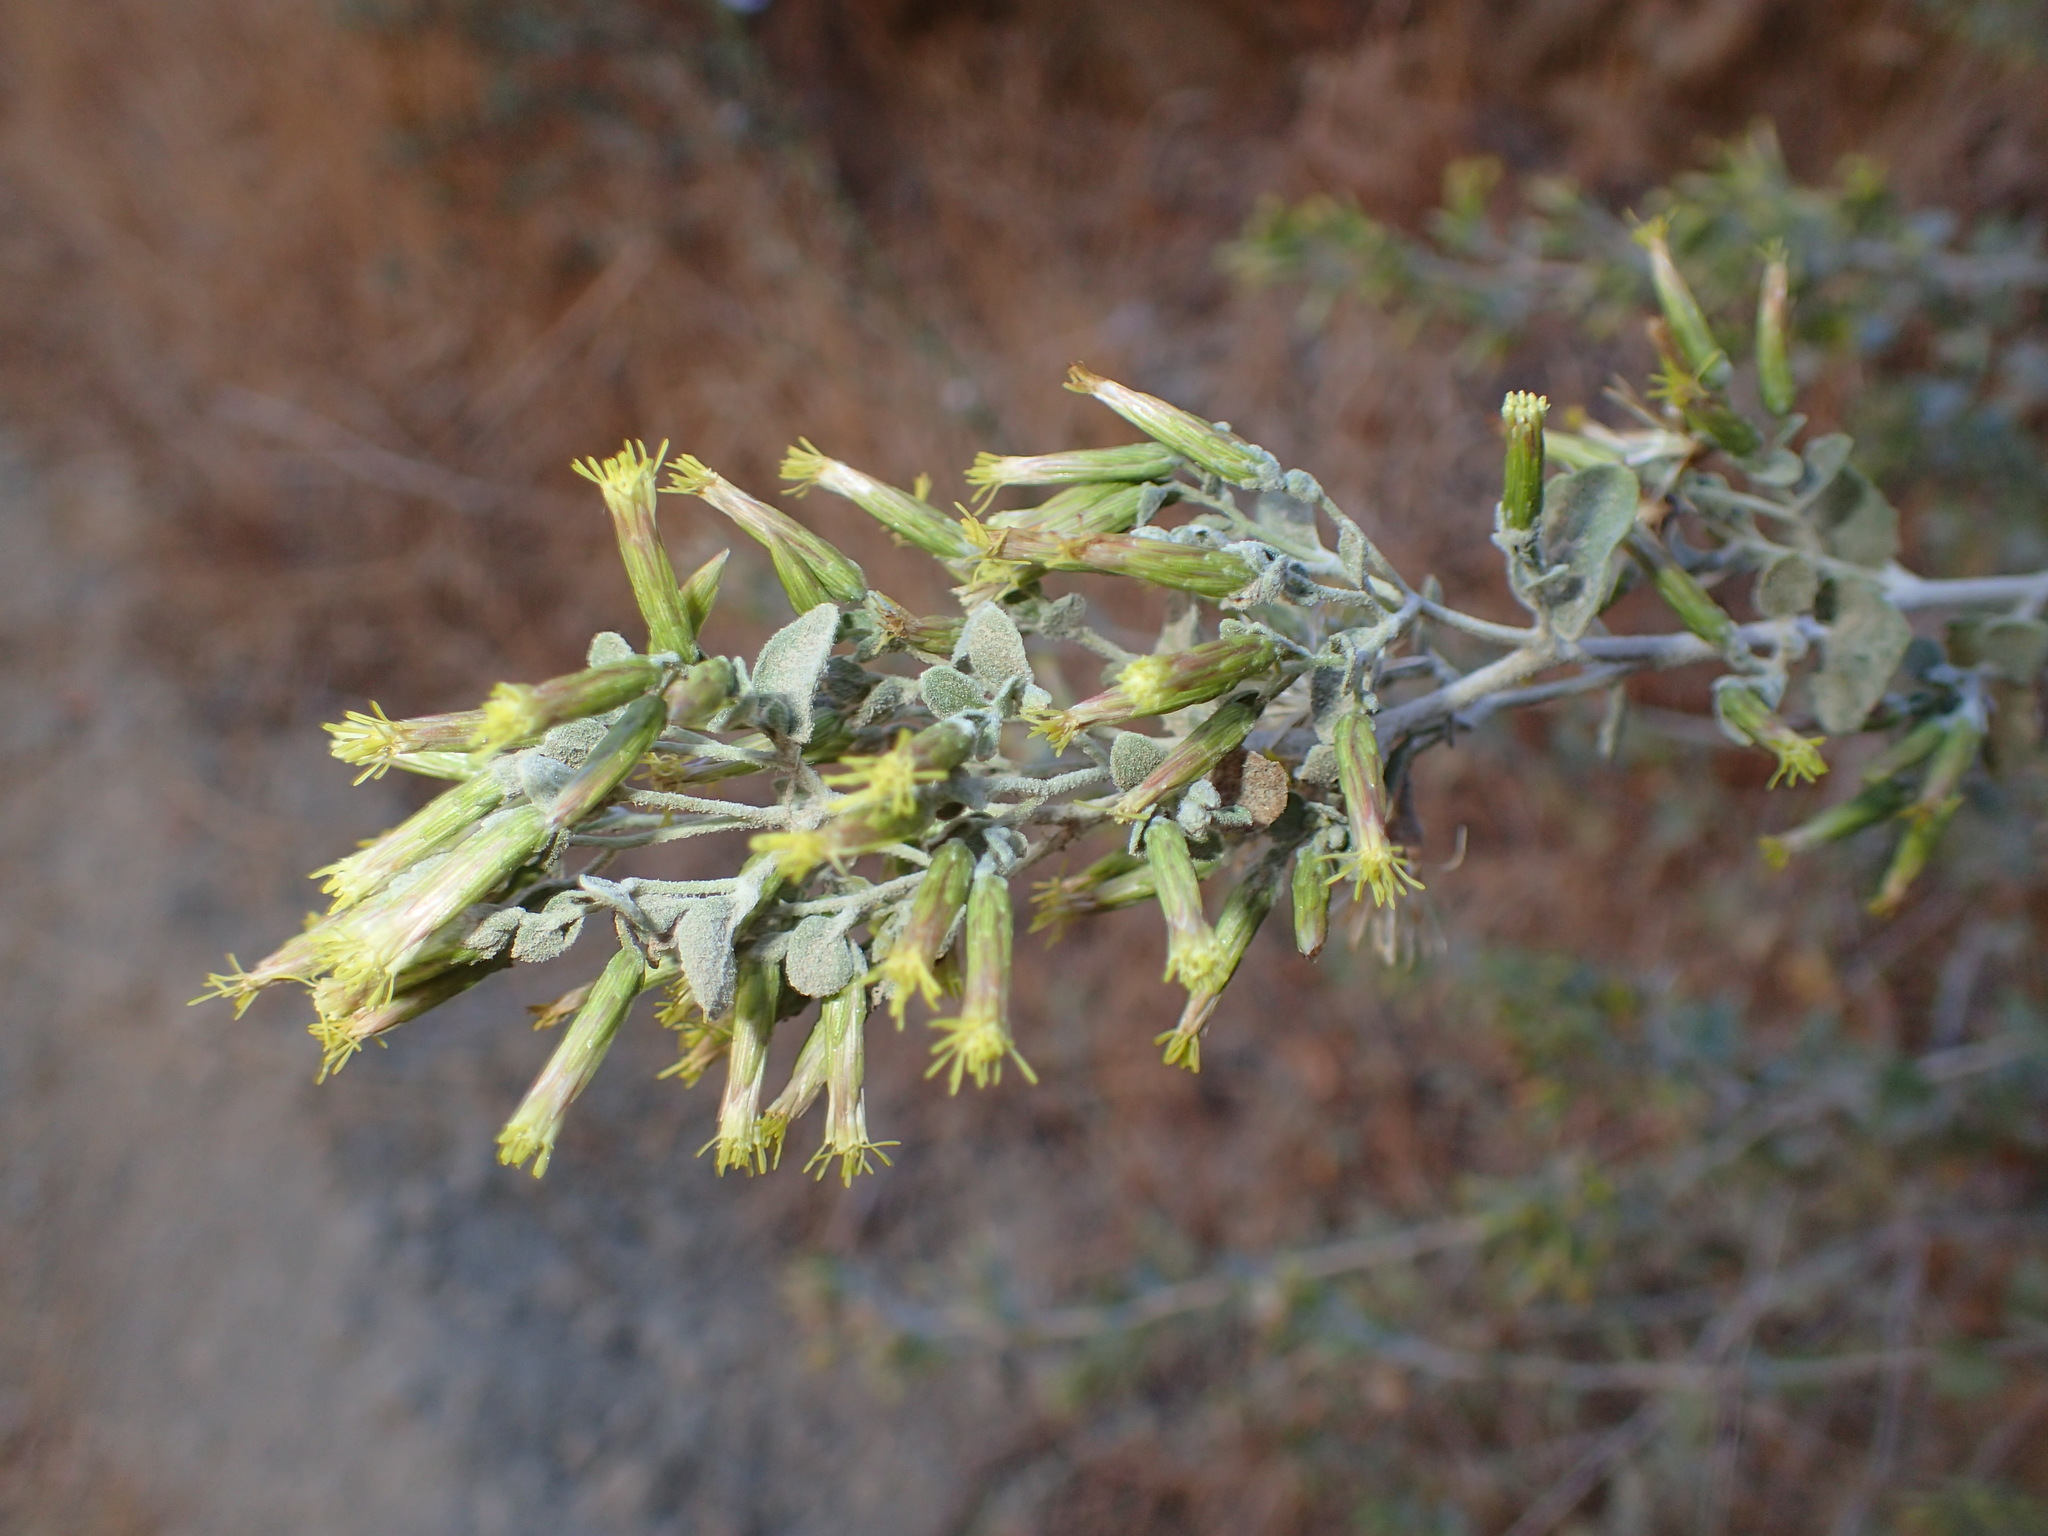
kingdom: Plantae
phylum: Tracheophyta
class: Magnoliopsida
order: Asterales
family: Asteraceae
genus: Brickellia
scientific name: Brickellia californica
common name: California brickellbush
